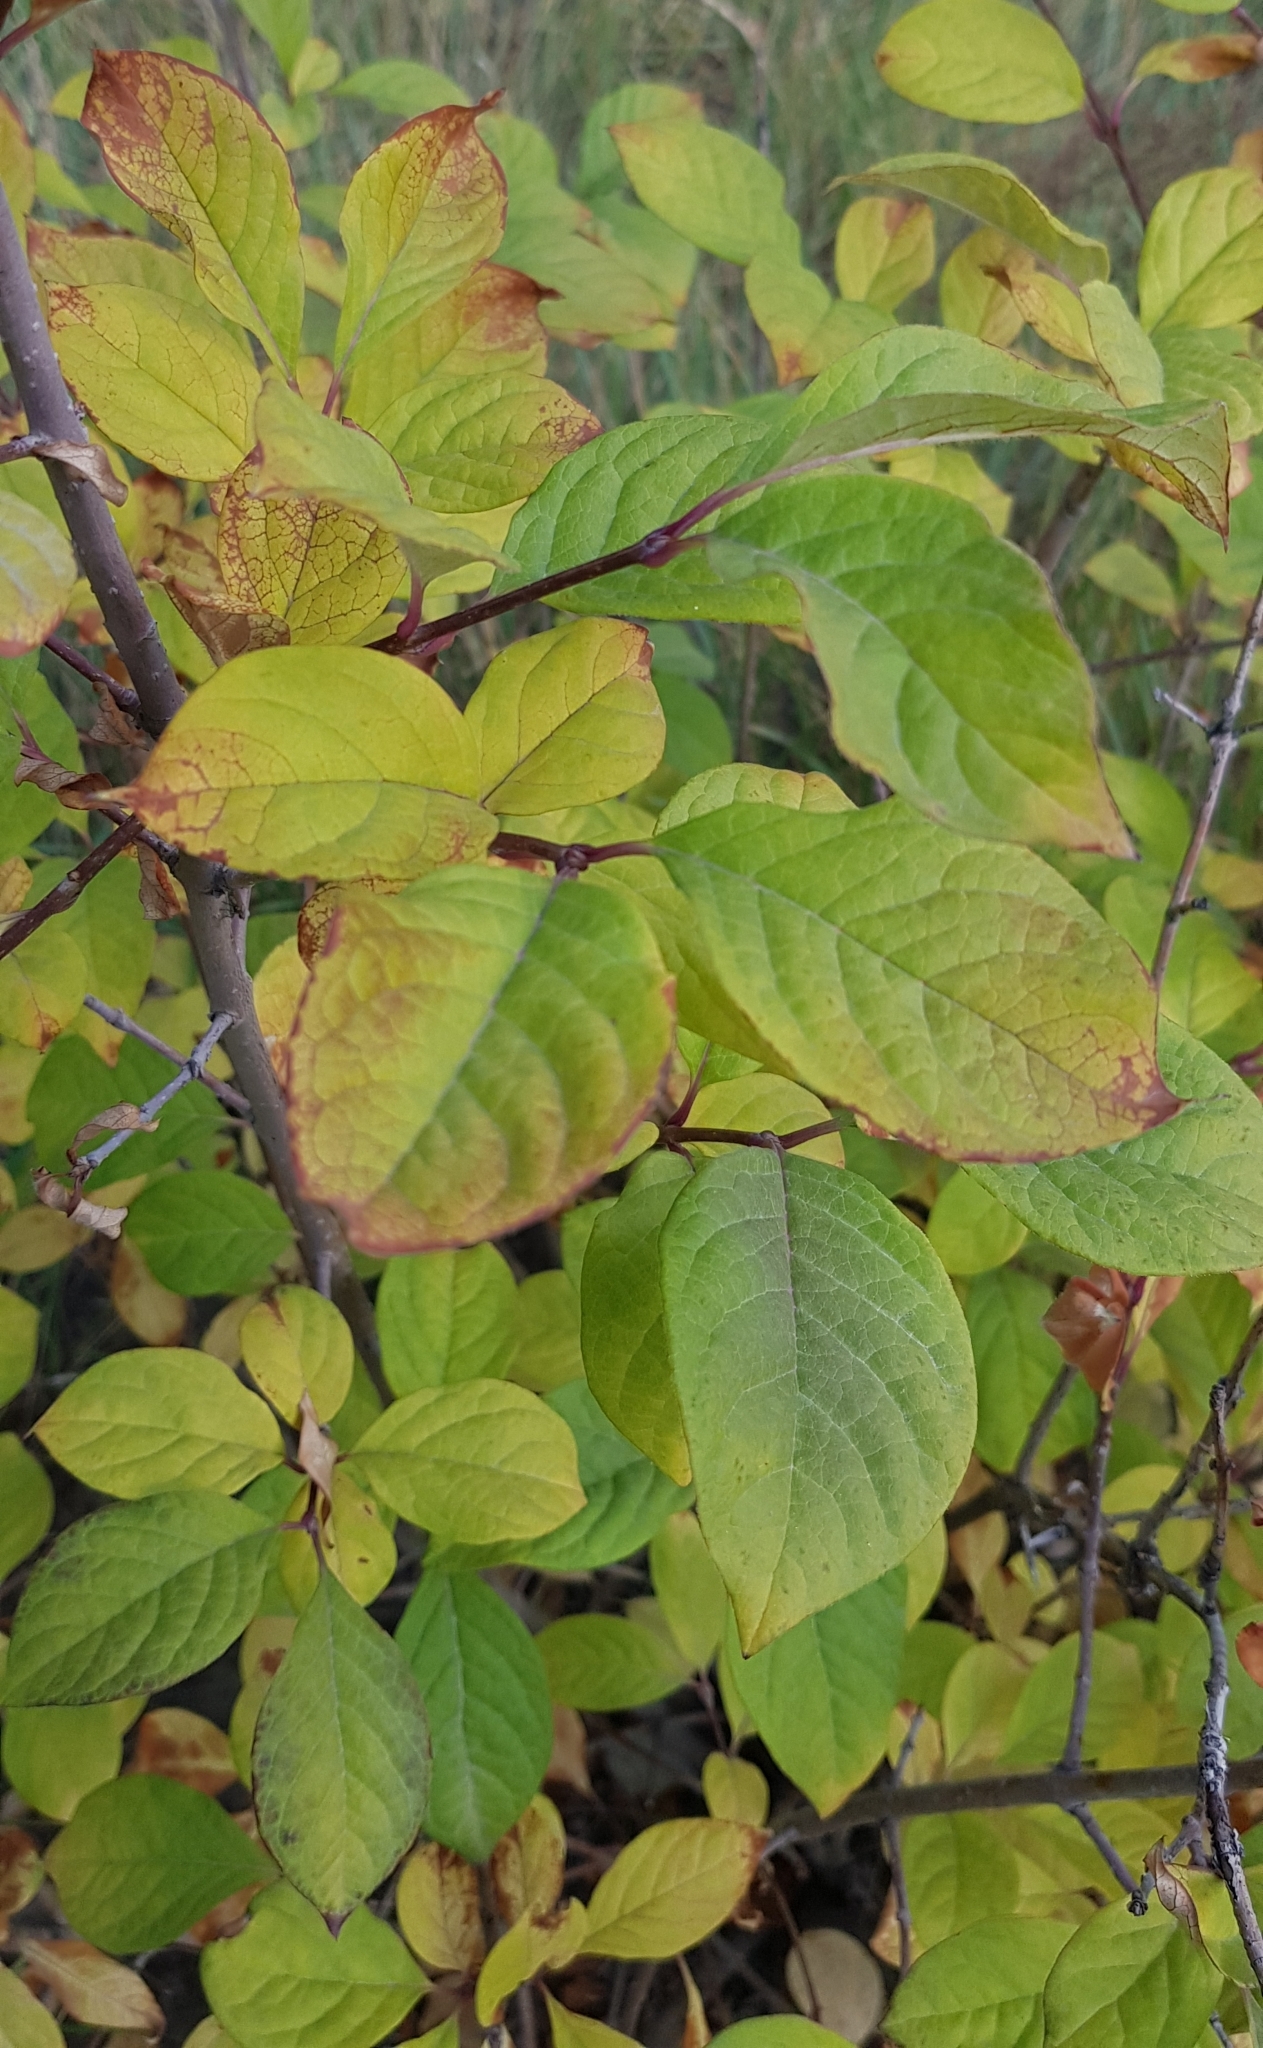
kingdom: Plantae
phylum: Tracheophyta
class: Magnoliopsida
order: Lamiales
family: Oleaceae
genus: Syringa
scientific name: Syringa josikaea
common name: Hungarian lilac
